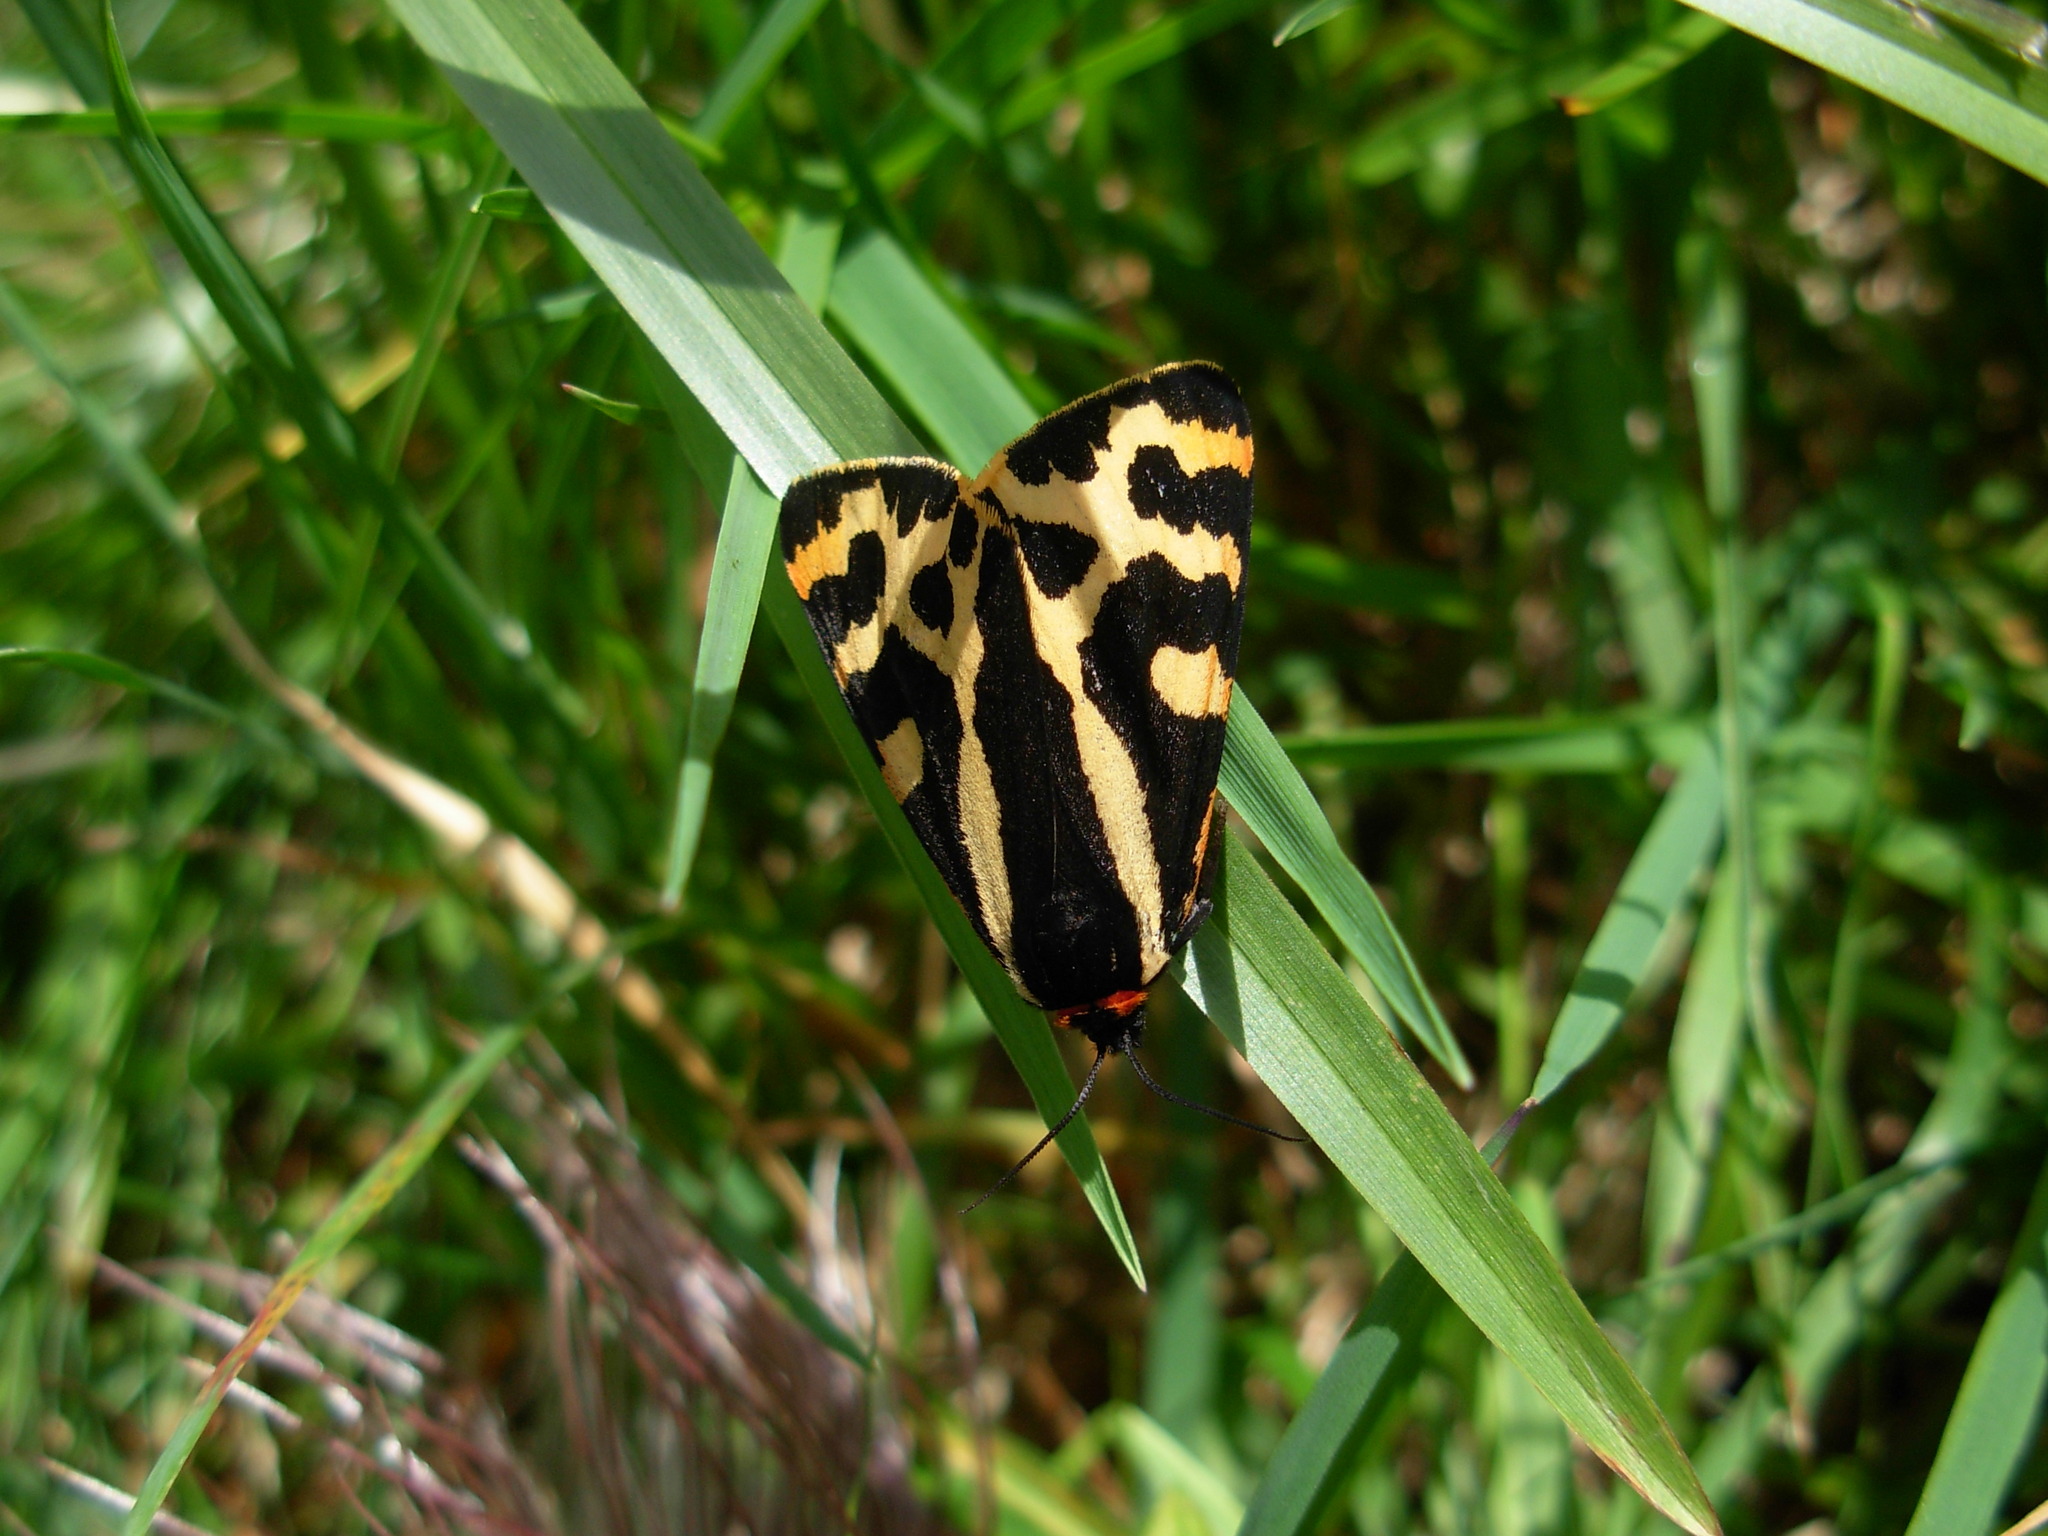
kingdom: Animalia
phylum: Arthropoda
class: Insecta
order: Lepidoptera
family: Erebidae
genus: Parasemia
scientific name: Parasemia plantaginis
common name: Wood tiger
